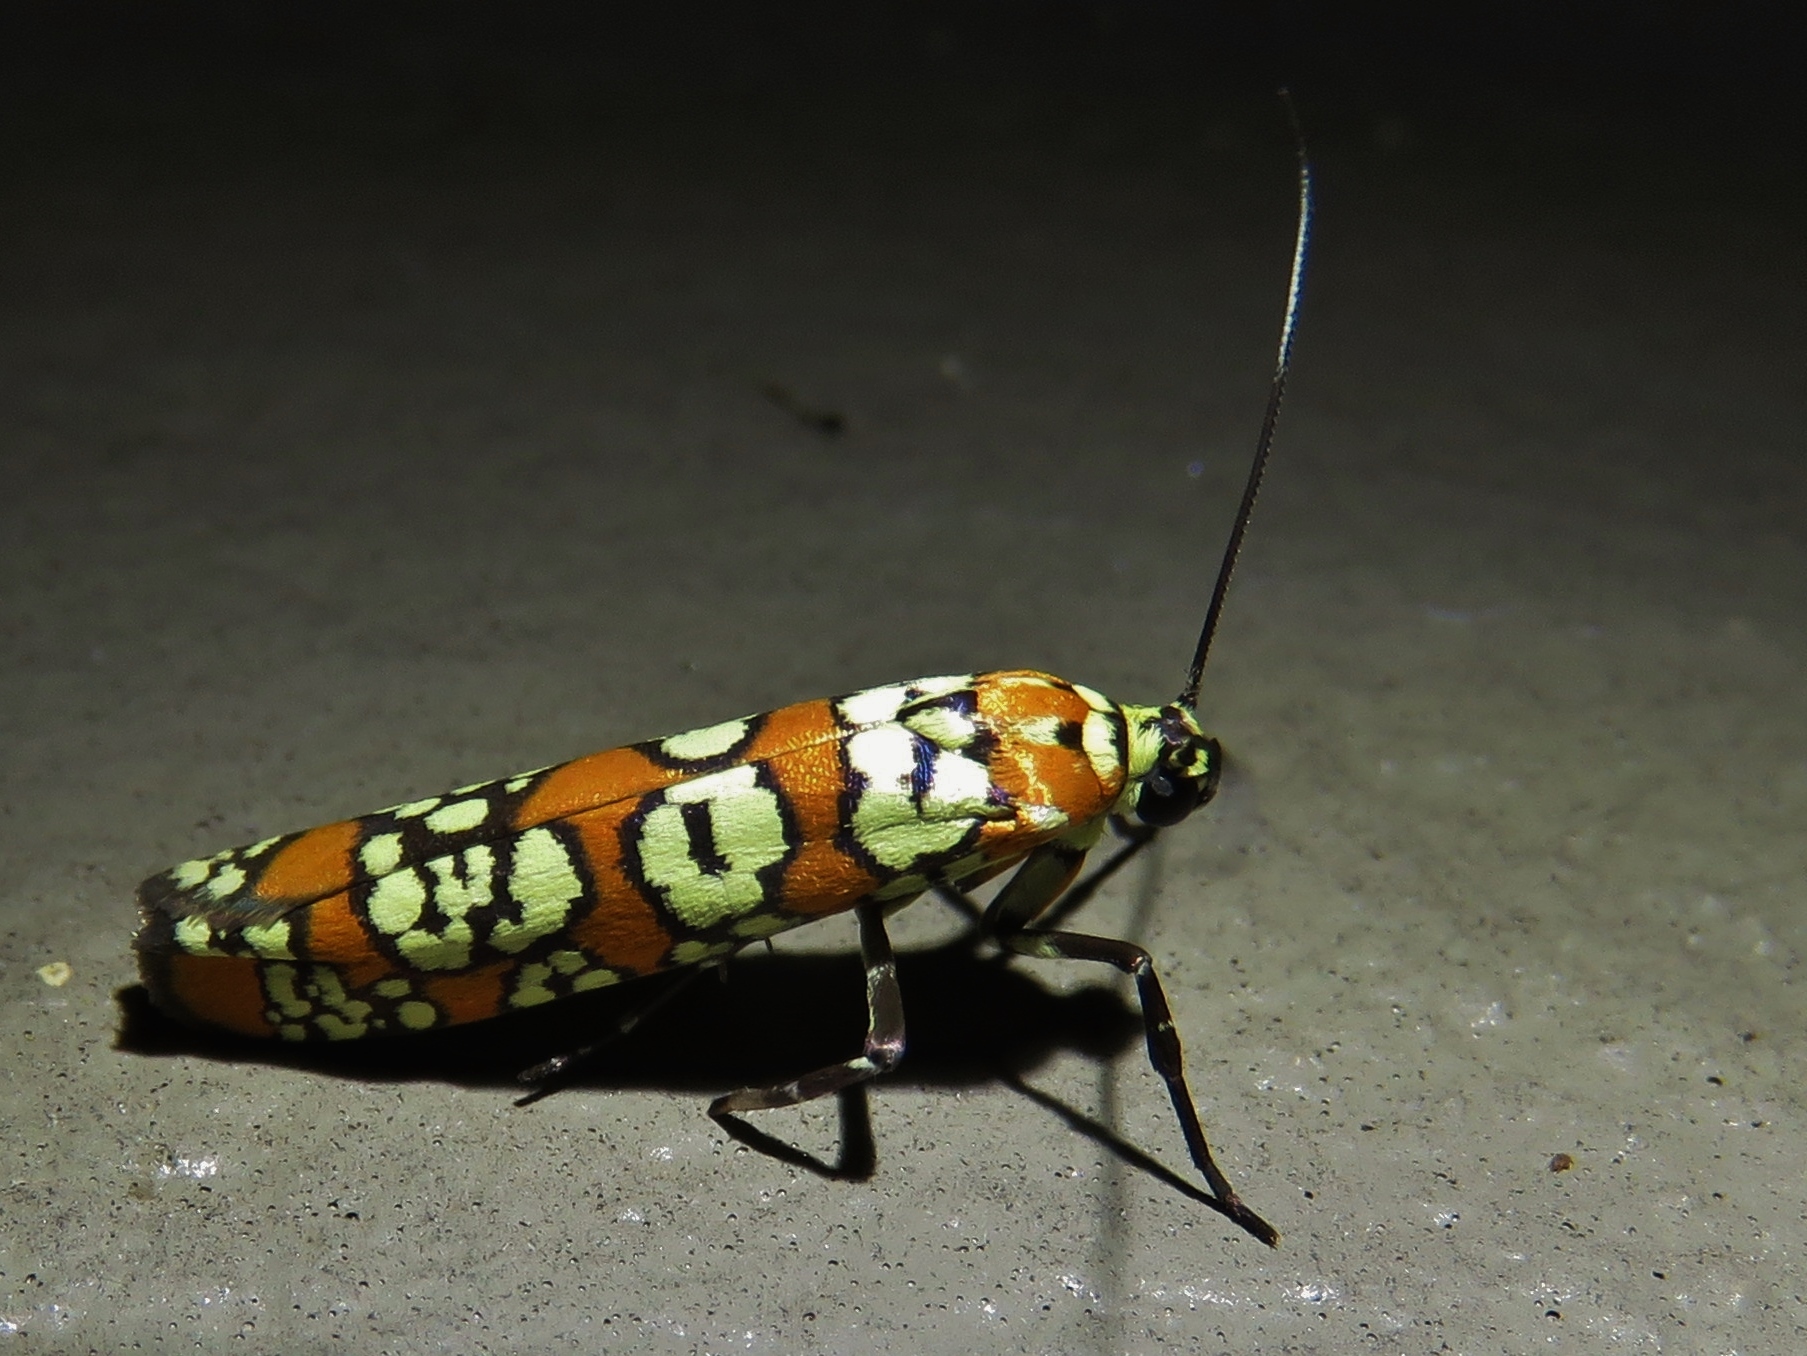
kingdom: Animalia
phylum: Arthropoda
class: Insecta
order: Lepidoptera
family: Attevidae
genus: Atteva
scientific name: Atteva punctella
